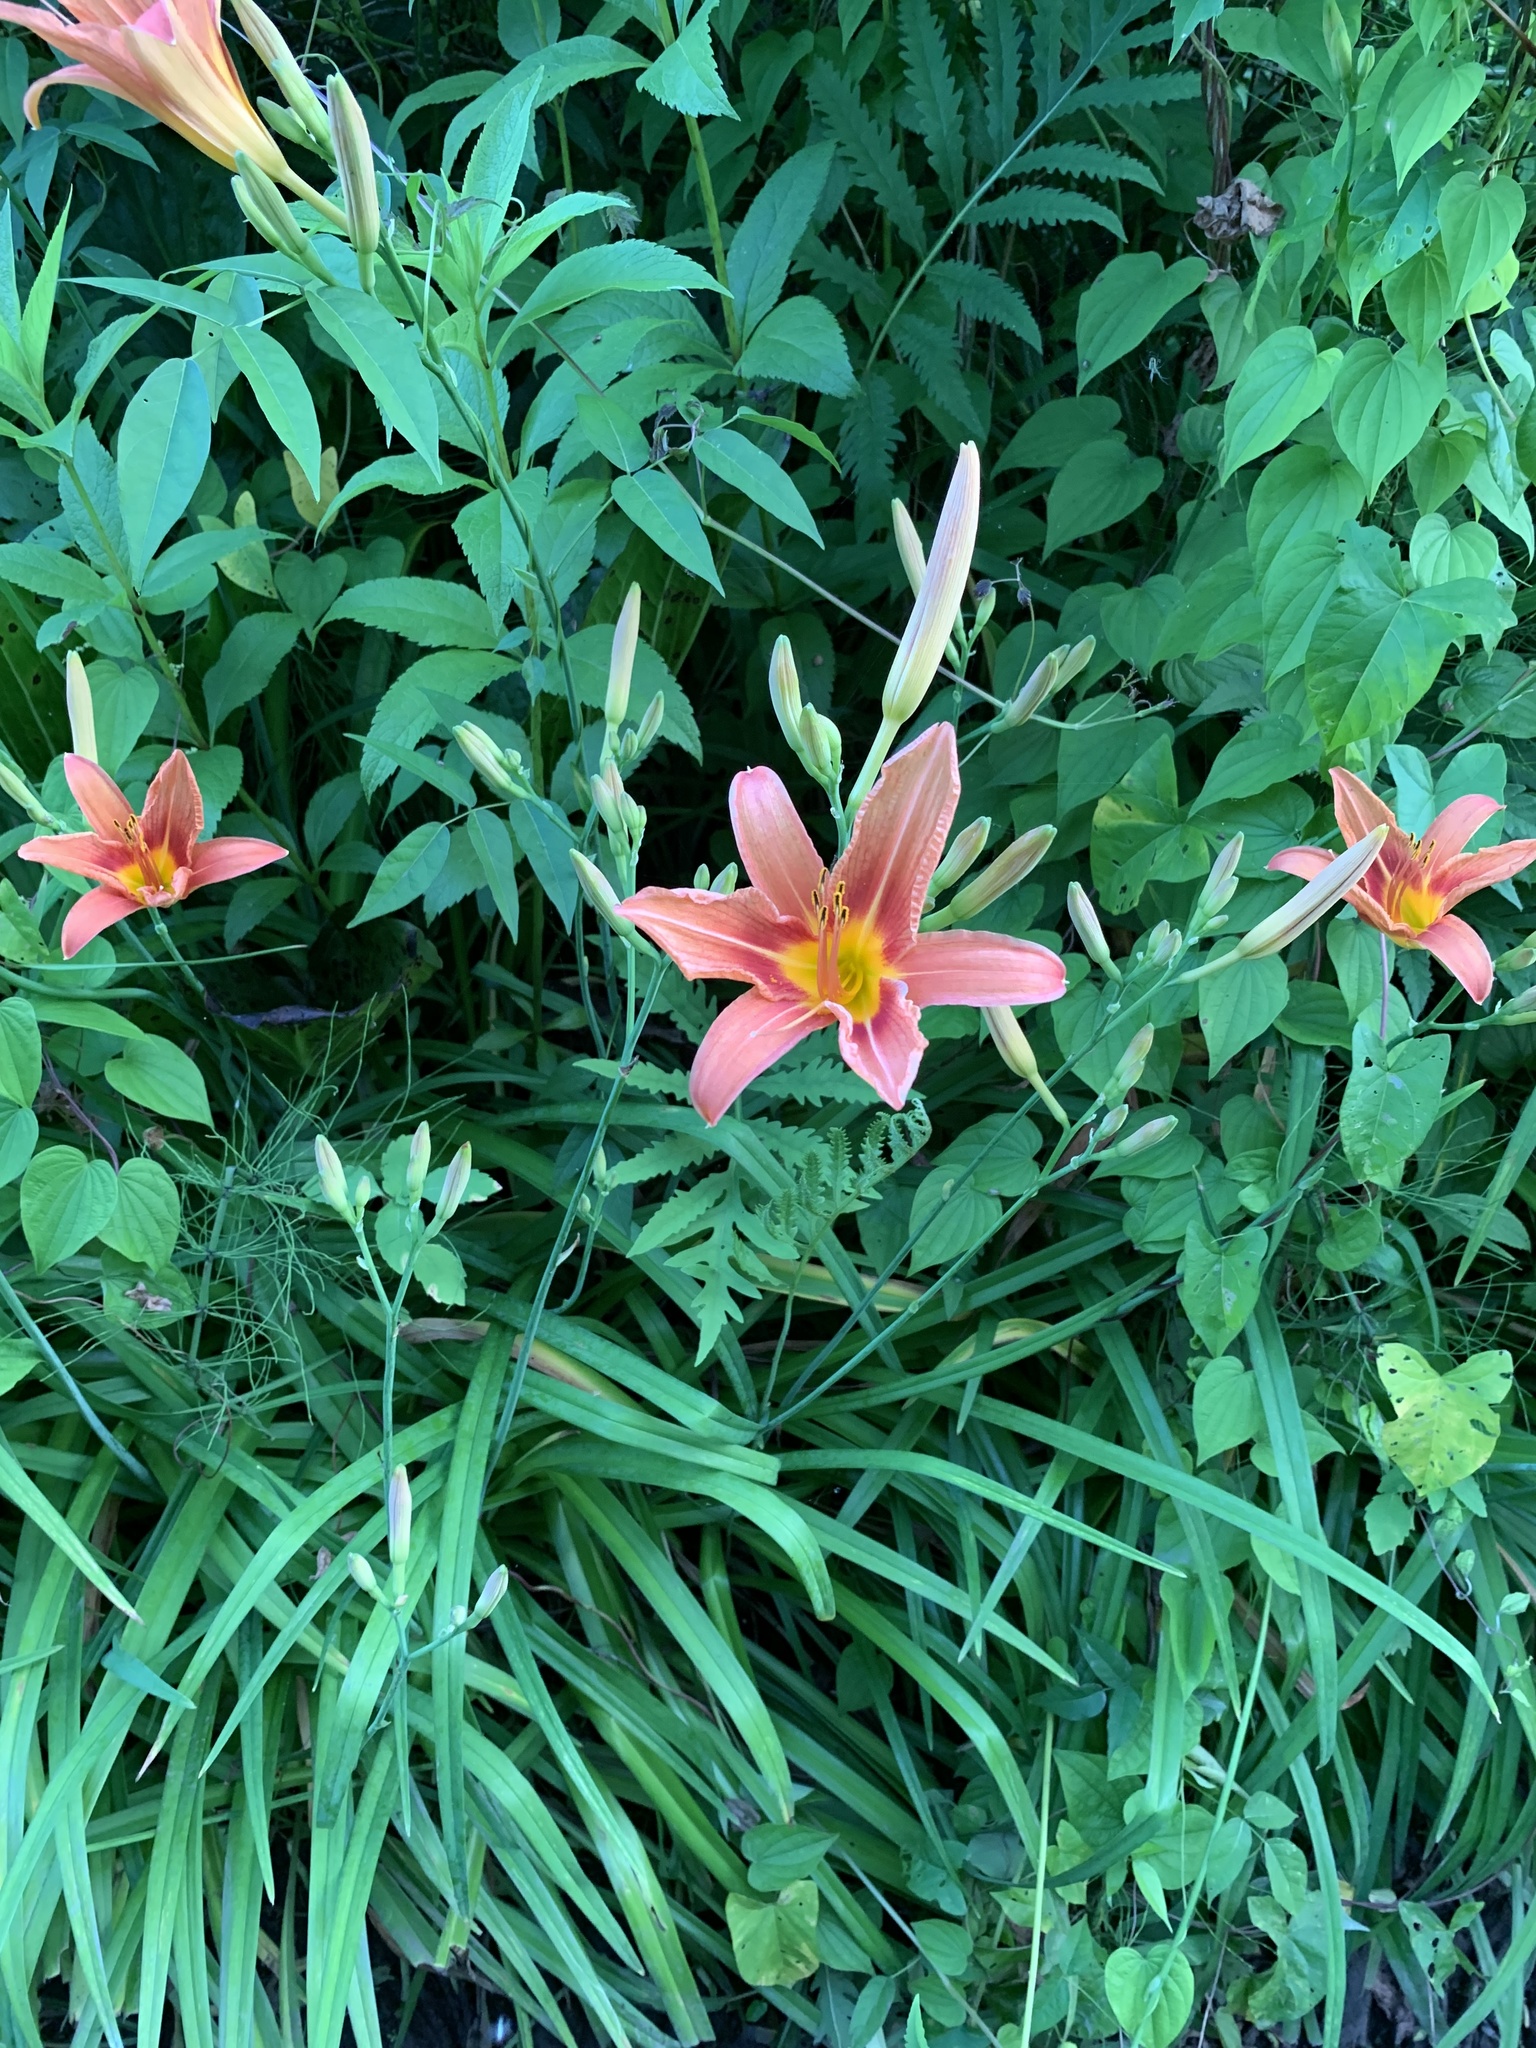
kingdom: Plantae
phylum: Tracheophyta
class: Liliopsida
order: Asparagales
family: Asphodelaceae
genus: Hemerocallis
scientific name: Hemerocallis fulva
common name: Orange day-lily
